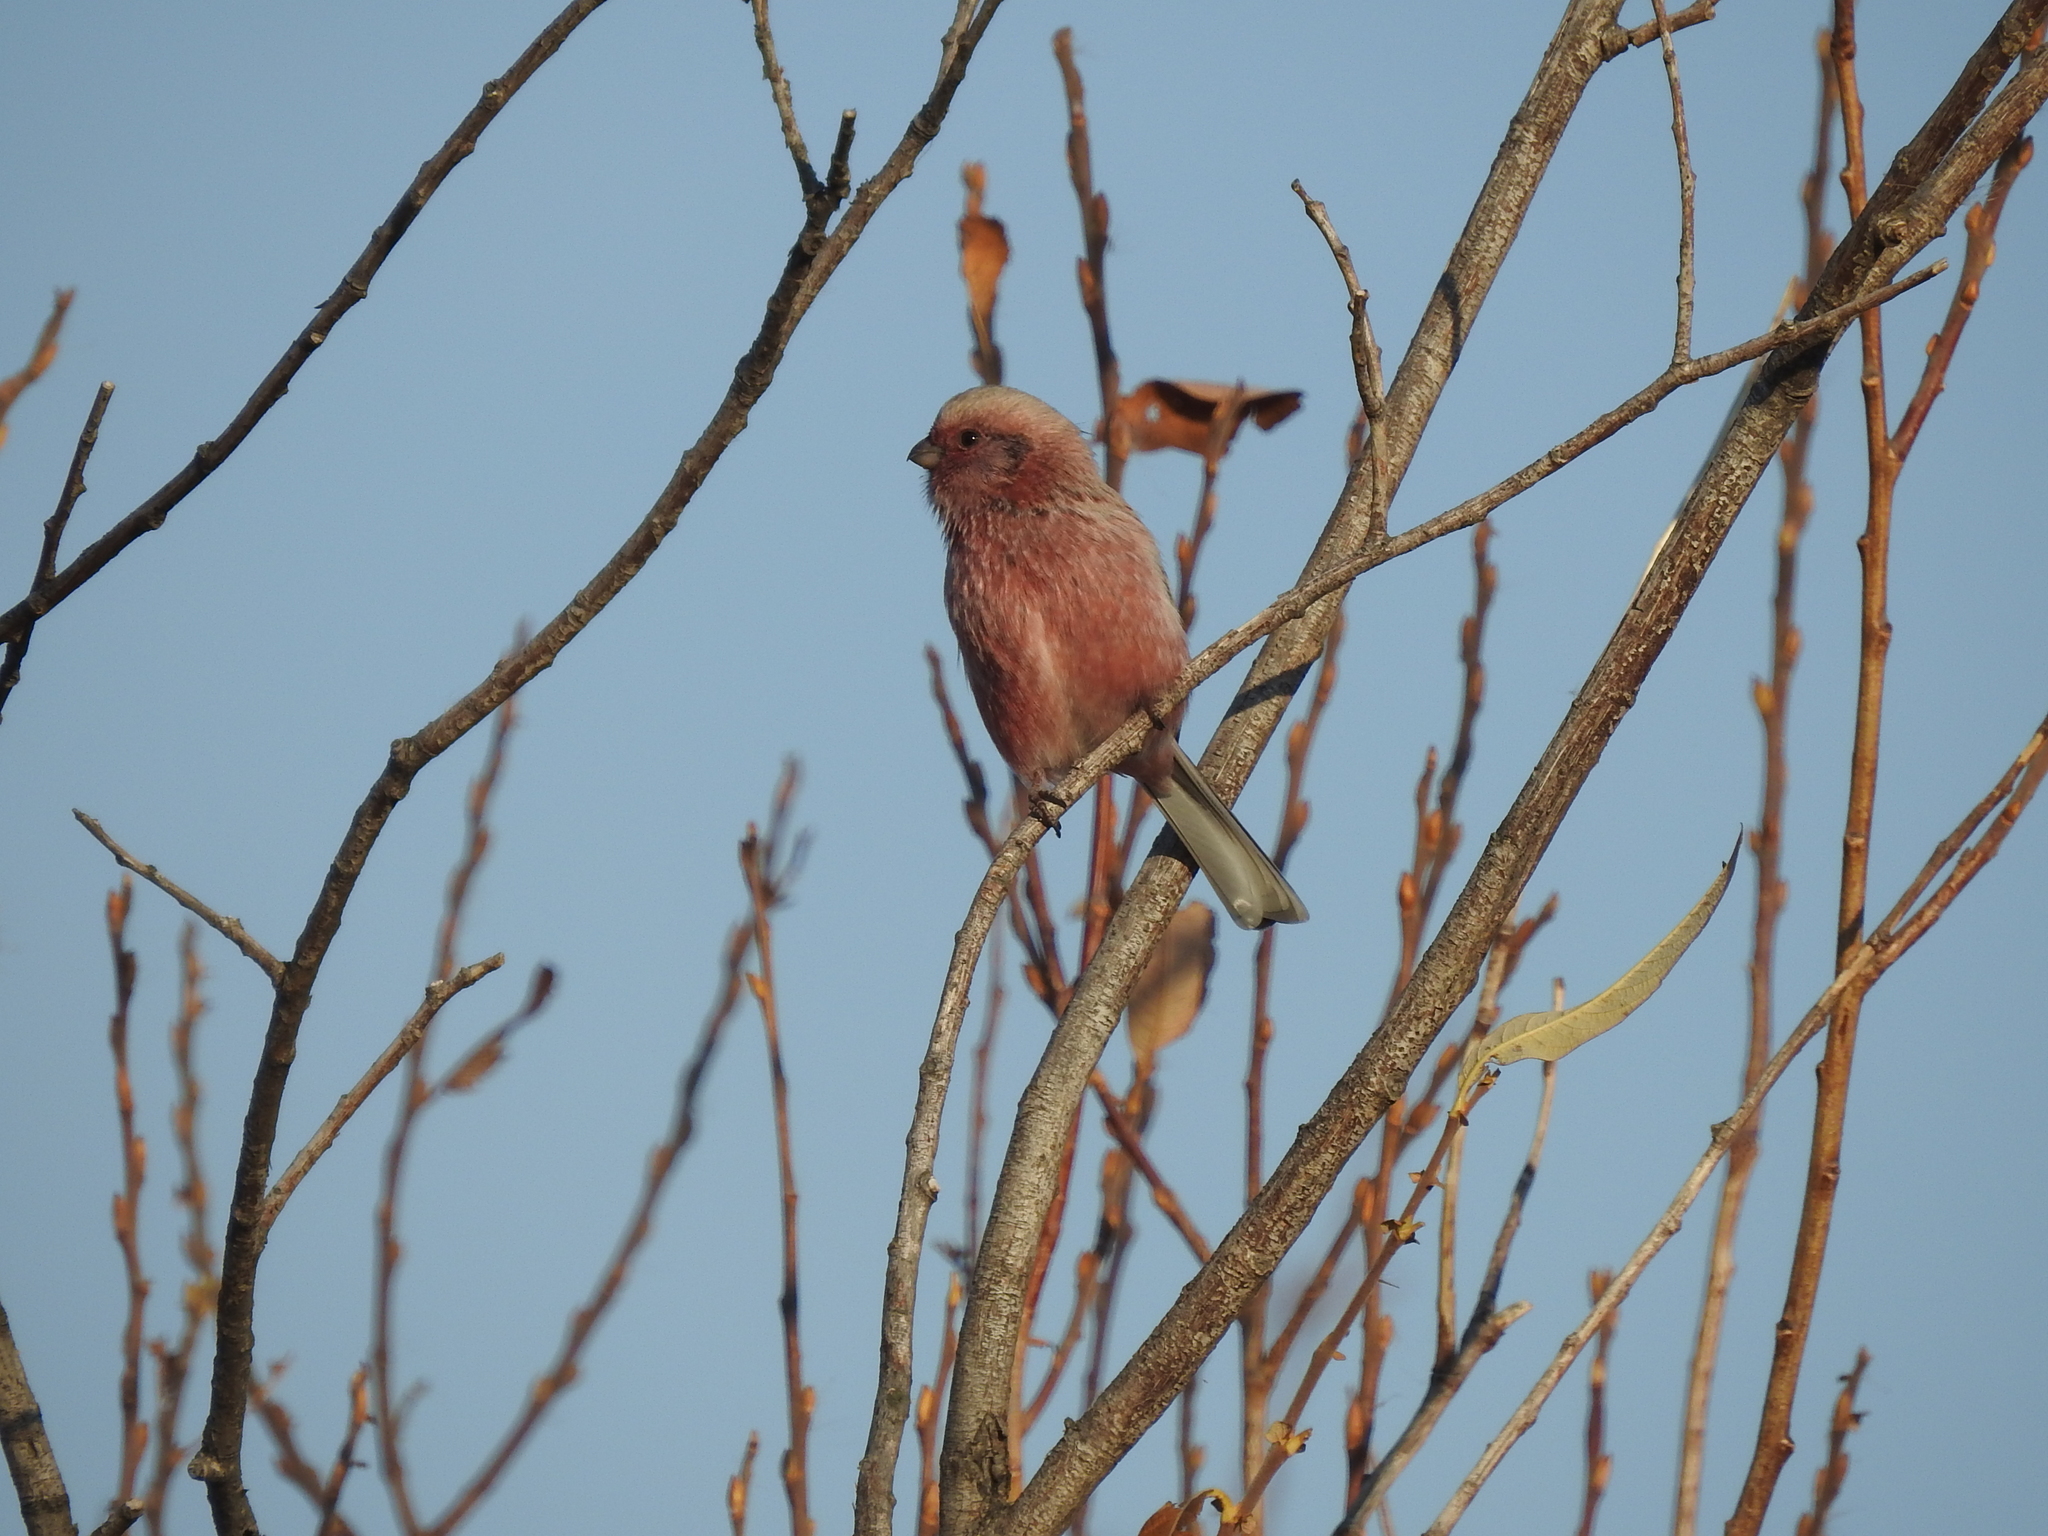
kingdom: Animalia
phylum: Chordata
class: Aves
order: Passeriformes
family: Fringillidae
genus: Carpodacus
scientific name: Carpodacus sibiricus
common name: Long-tailed rosefinch
